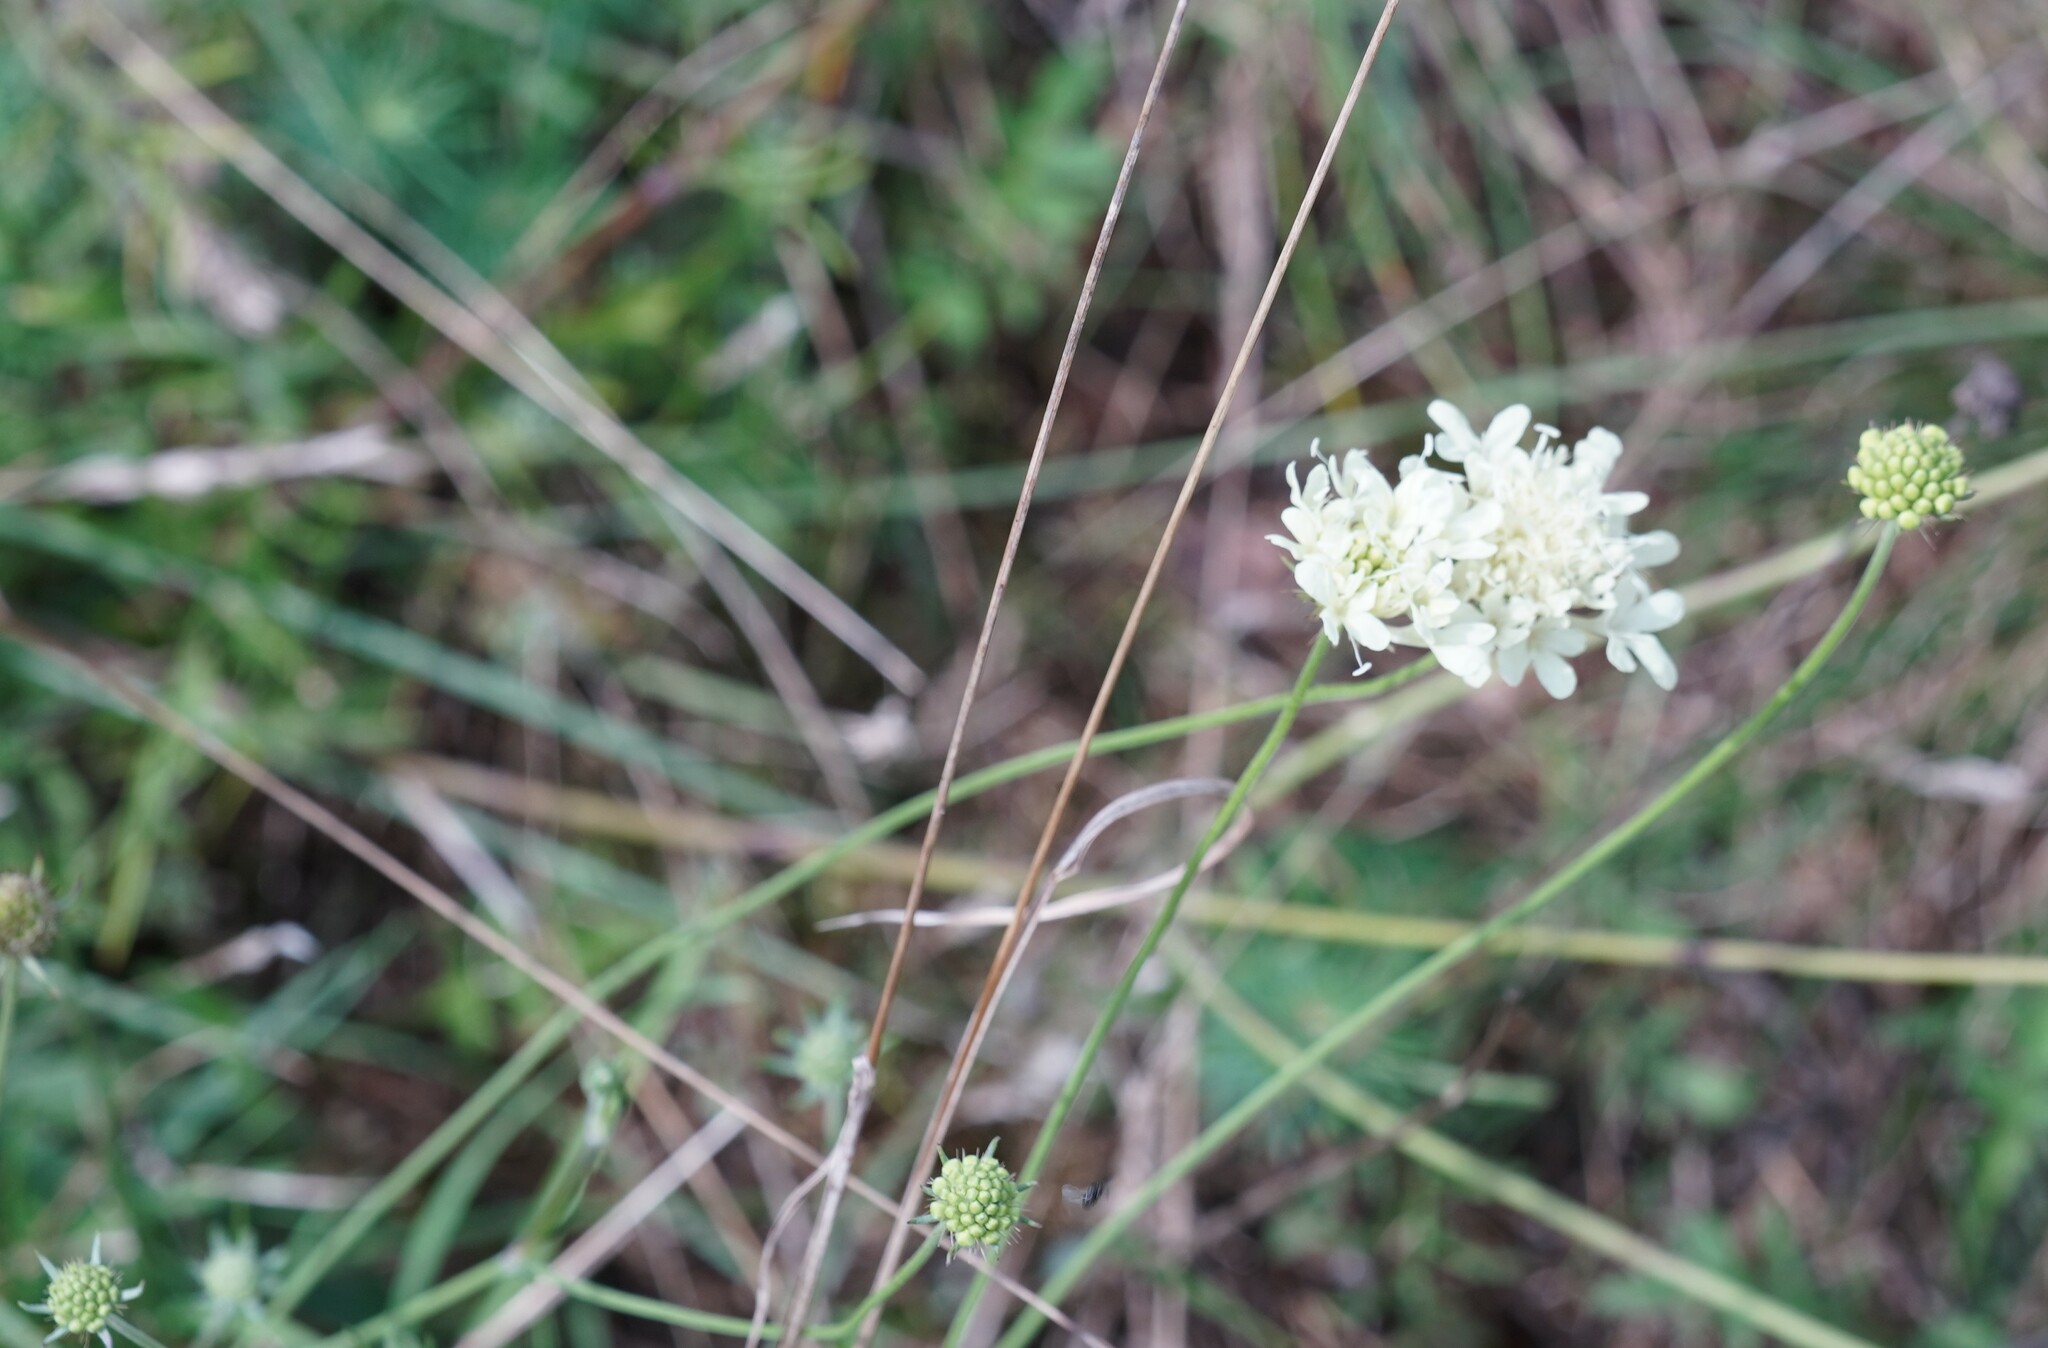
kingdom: Plantae
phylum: Tracheophyta
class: Magnoliopsida
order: Dipsacales
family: Caprifoliaceae
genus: Scabiosa
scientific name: Scabiosa ochroleuca
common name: Cream pincushions
